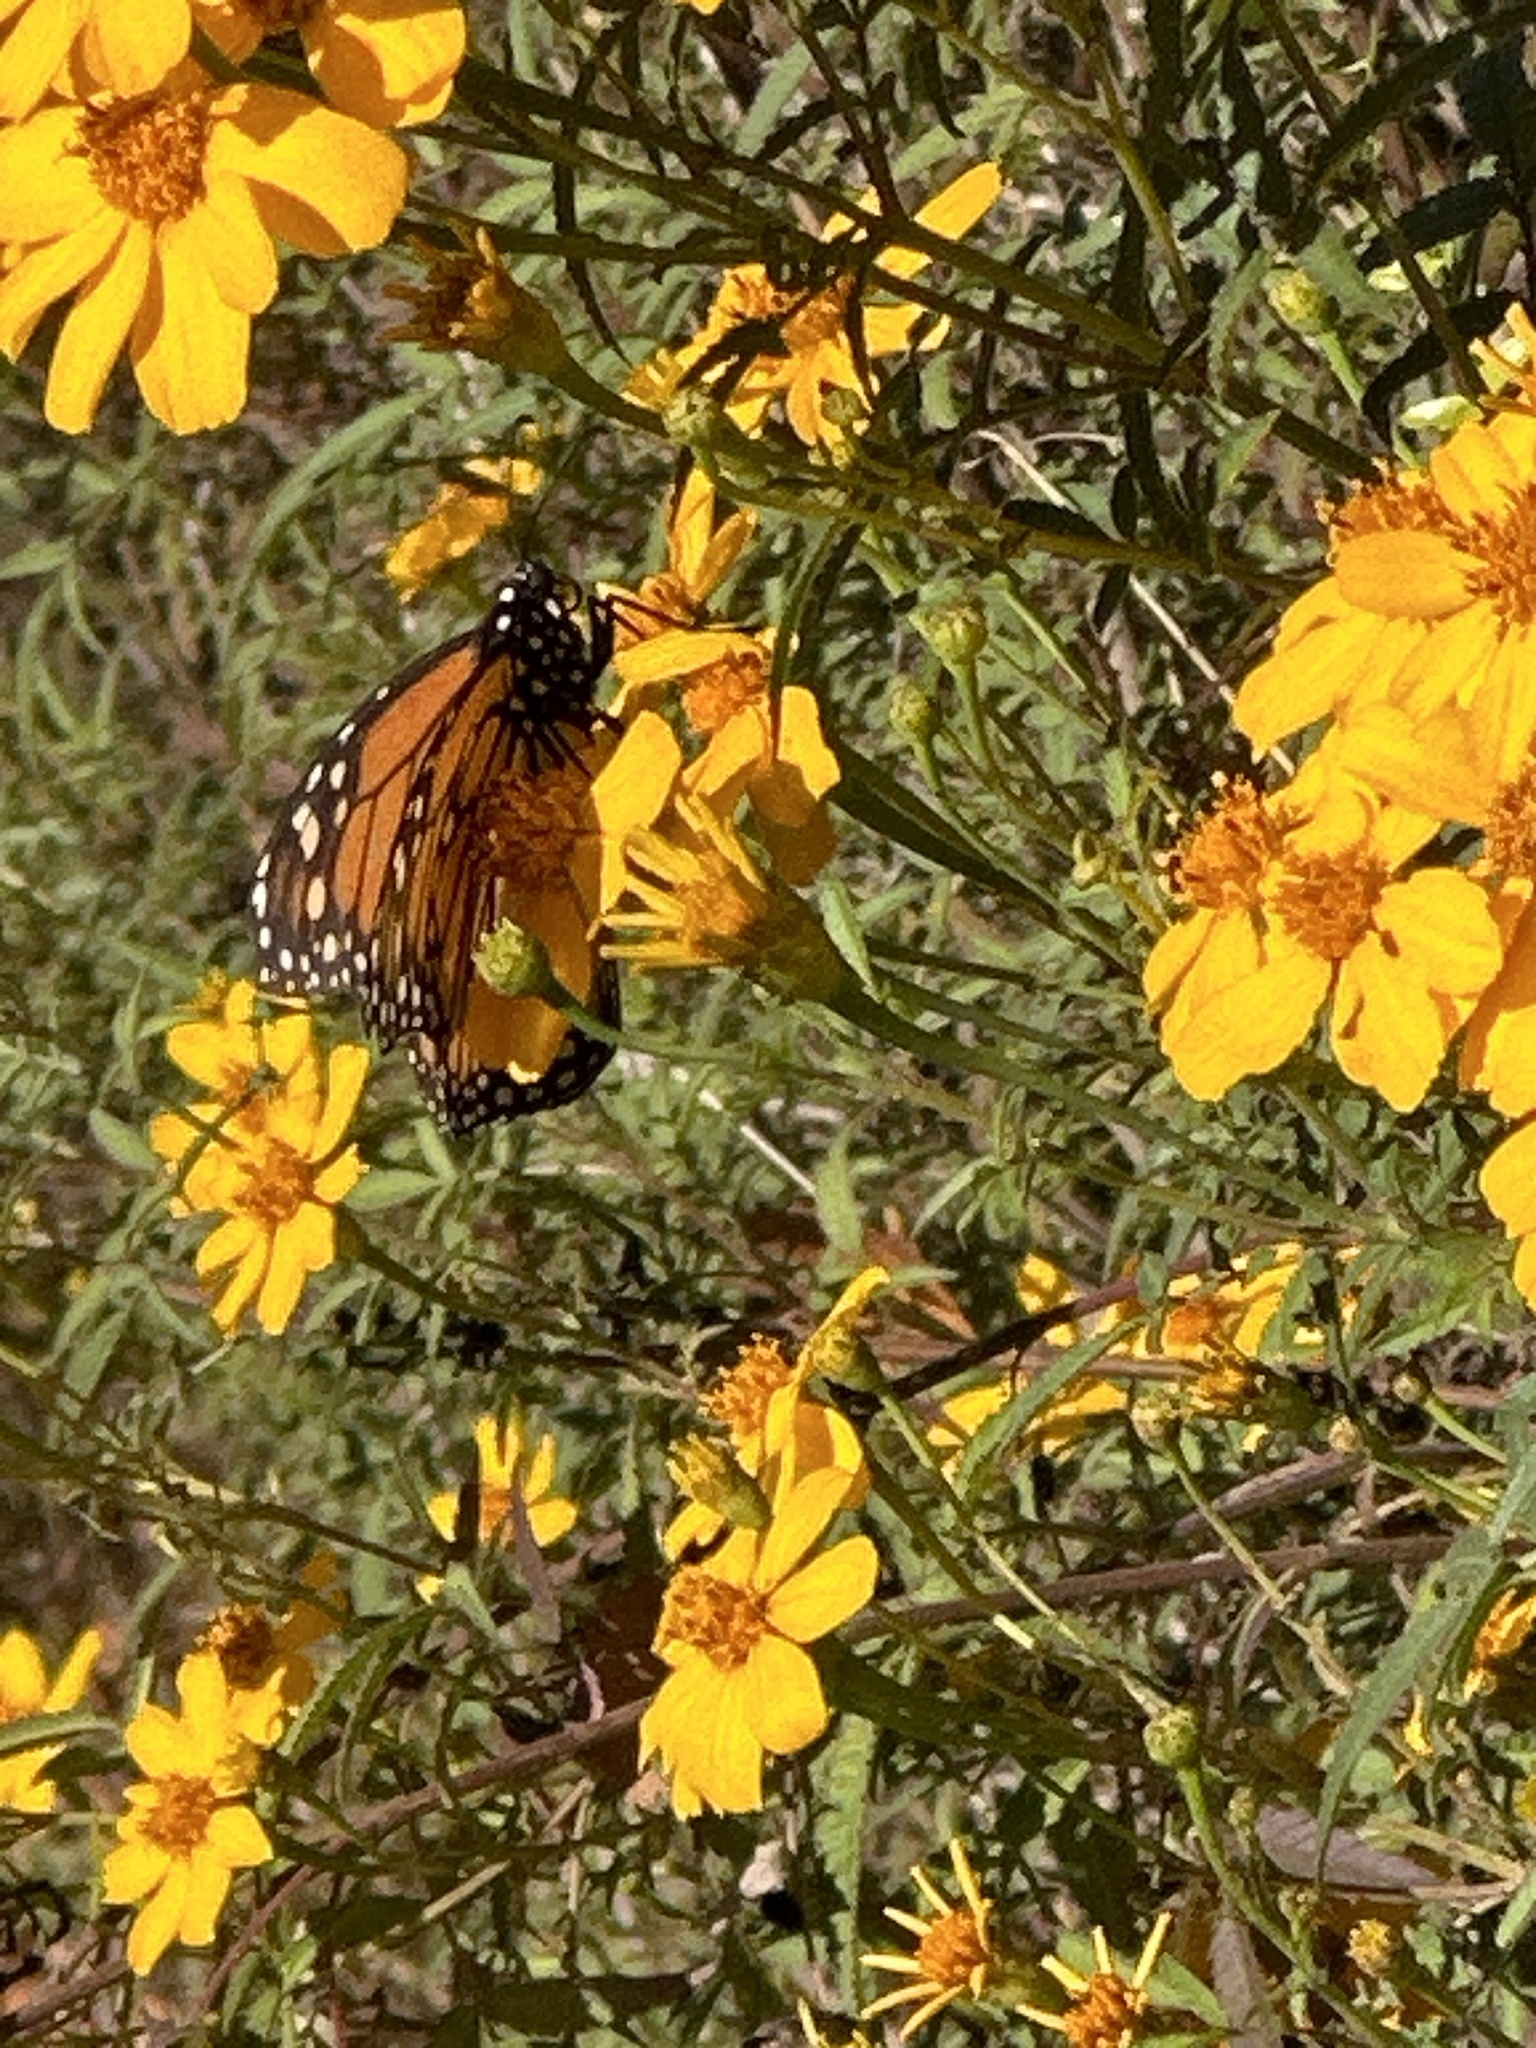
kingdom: Animalia
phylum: Arthropoda
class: Insecta
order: Lepidoptera
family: Nymphalidae
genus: Danaus
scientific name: Danaus plexippus
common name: Monarch
